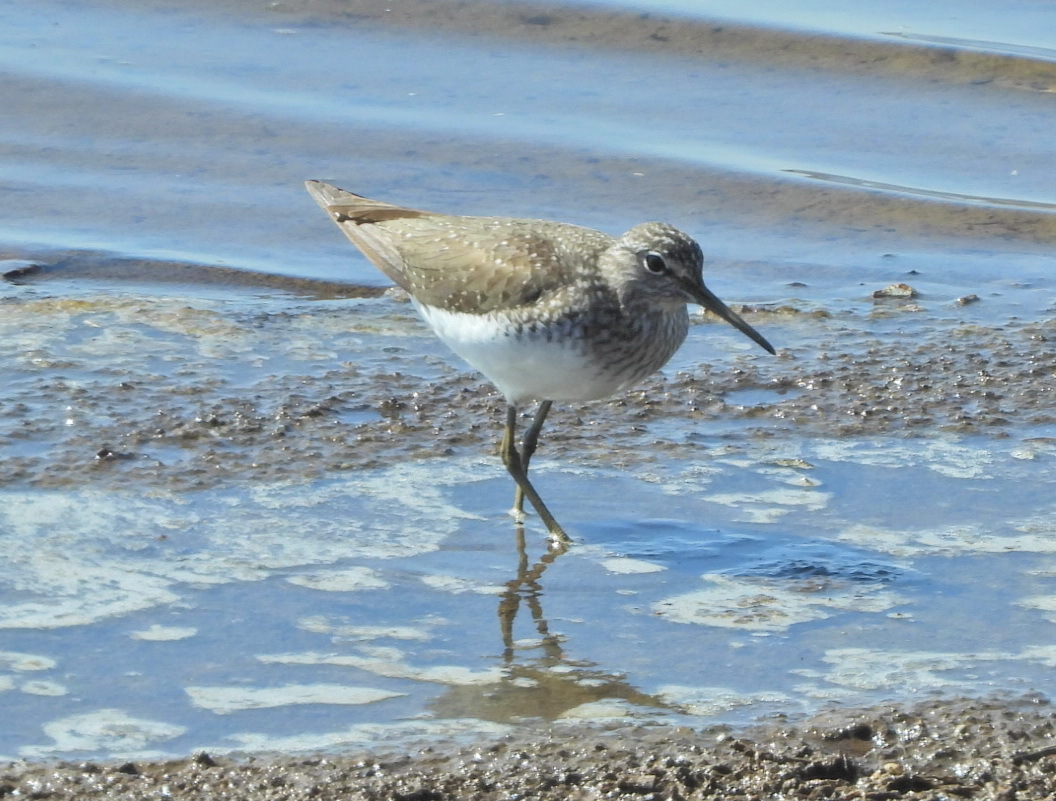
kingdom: Animalia
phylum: Chordata
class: Aves
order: Charadriiformes
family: Scolopacidae
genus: Tringa
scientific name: Tringa ochropus
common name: Green sandpiper
